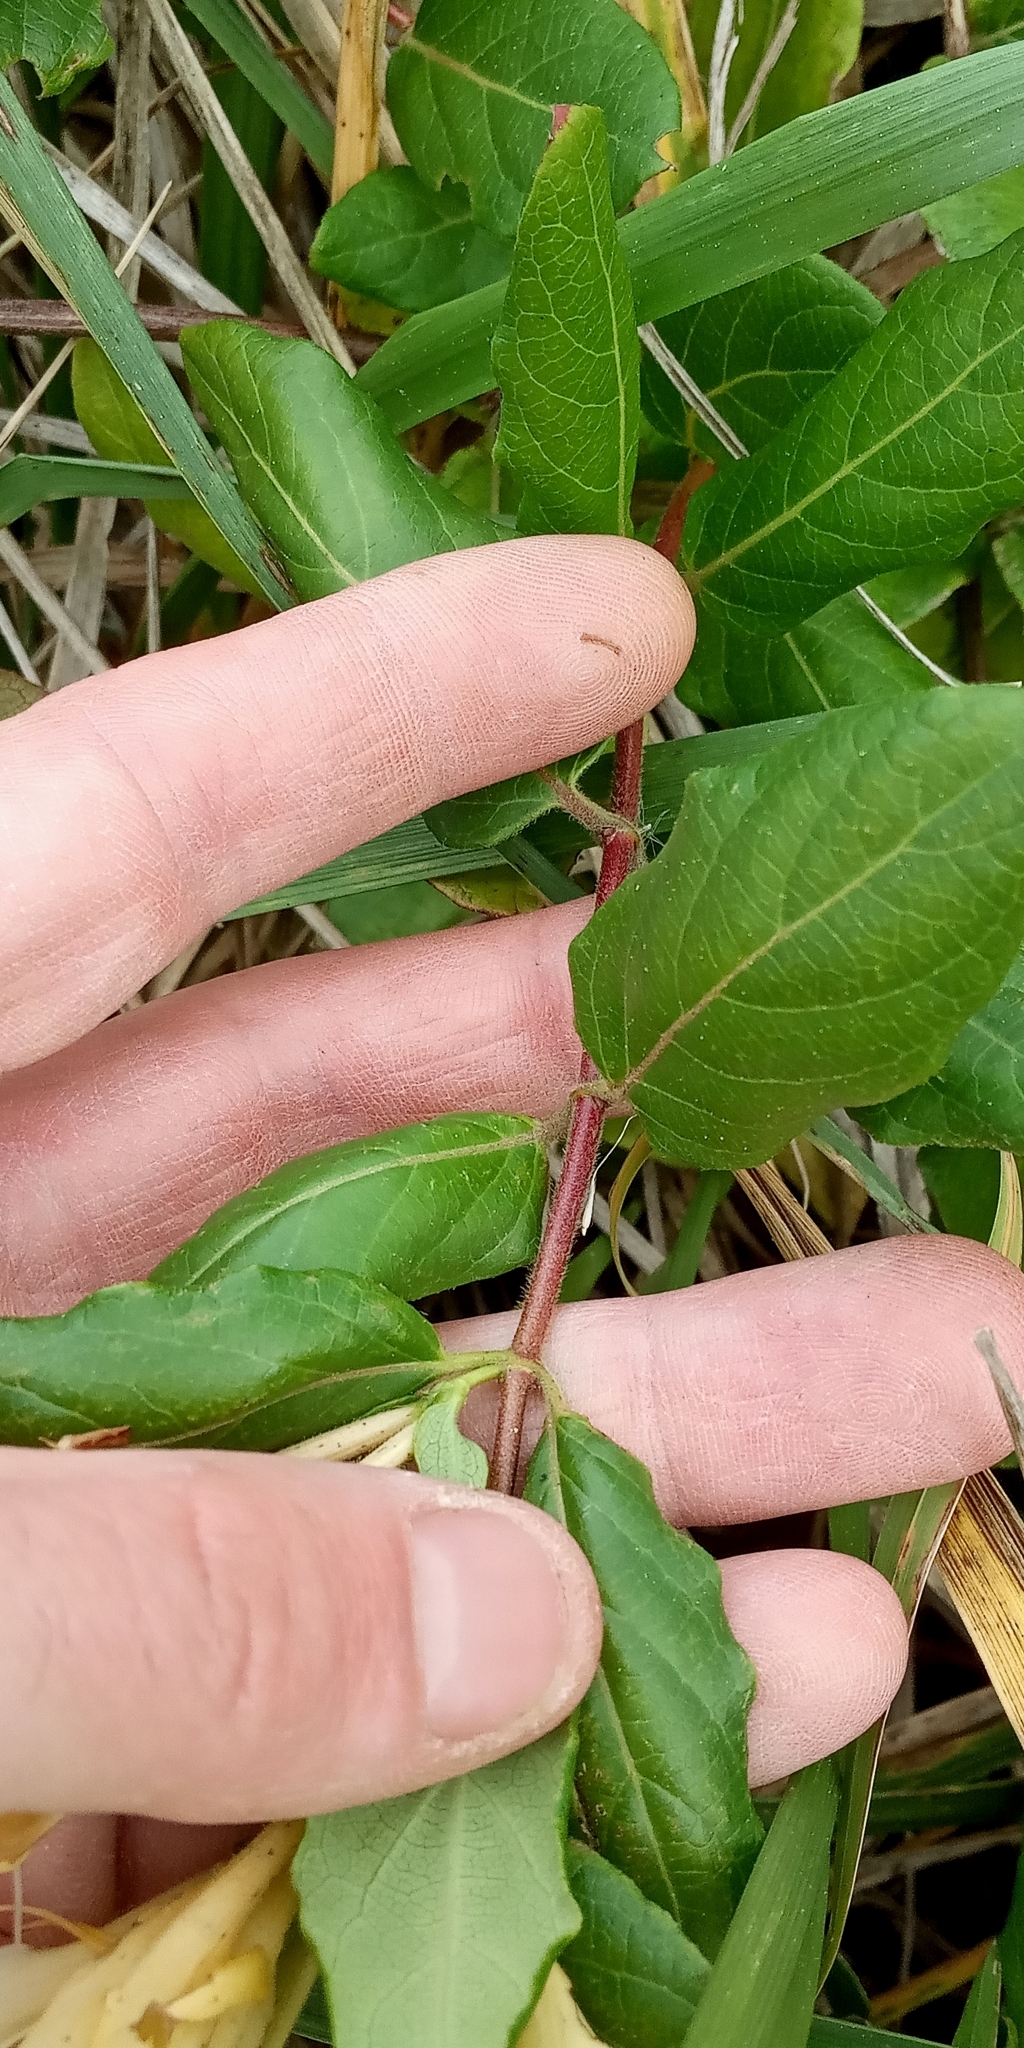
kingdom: Plantae
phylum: Tracheophyta
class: Magnoliopsida
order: Dipsacales
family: Caprifoliaceae
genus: Lonicera
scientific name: Lonicera japonica
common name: Japanese honeysuckle
